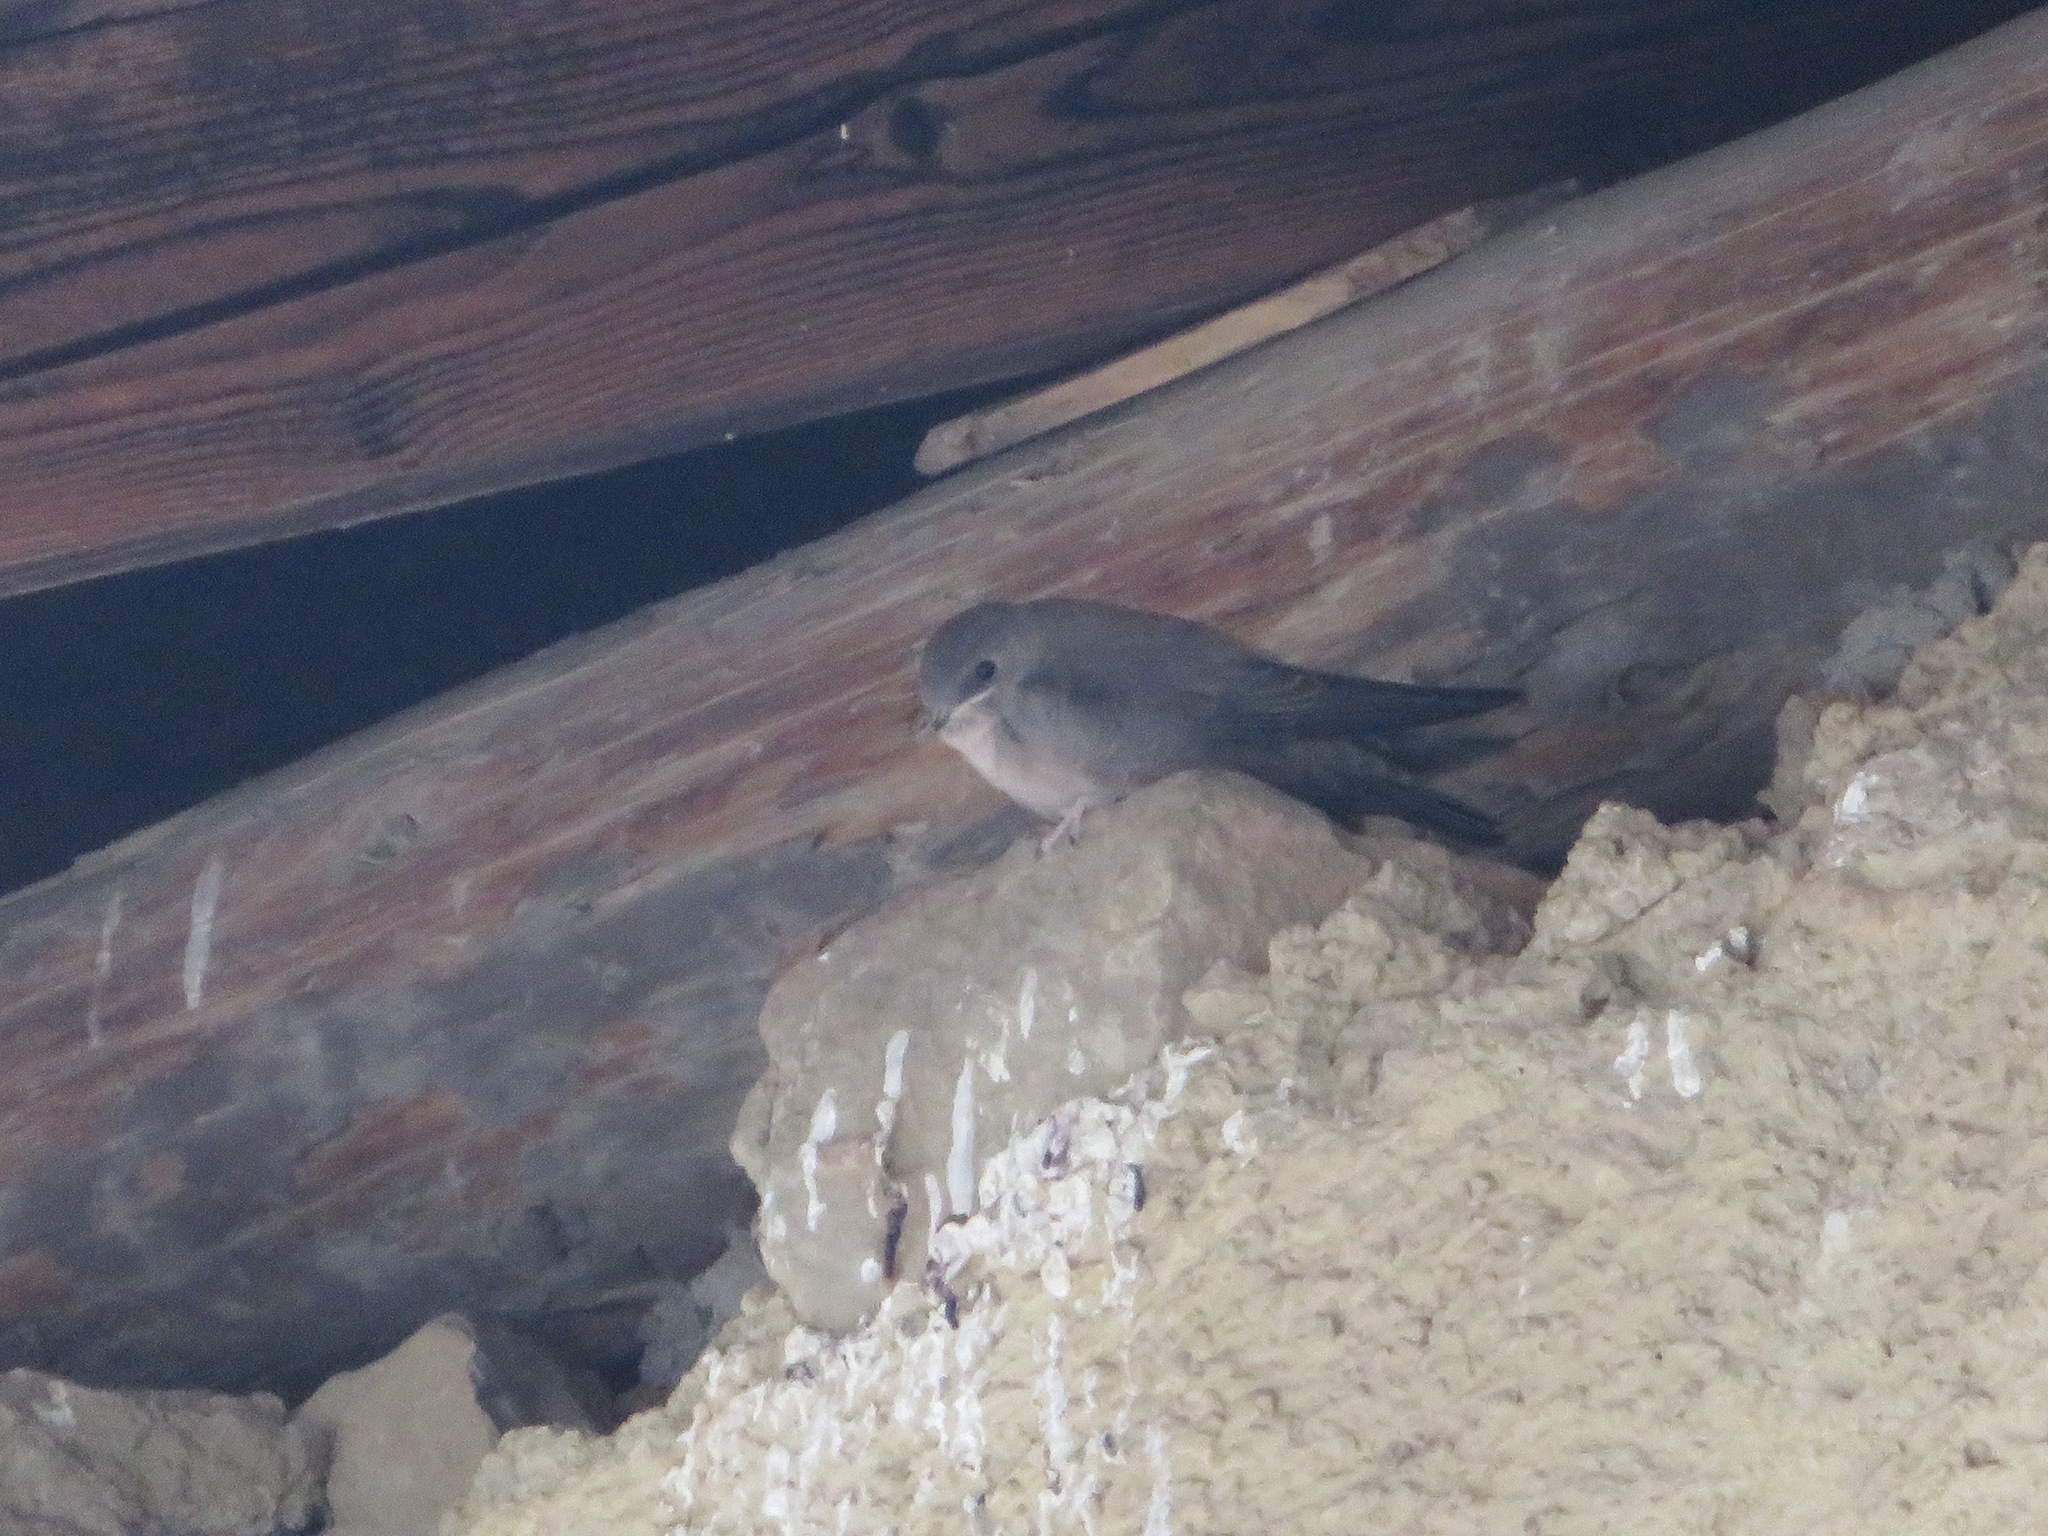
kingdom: Animalia
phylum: Chordata
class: Aves
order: Passeriformes
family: Hirundinidae
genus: Ptyonoprogne
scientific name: Ptyonoprogne rupestris
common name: Eurasian crag martin
